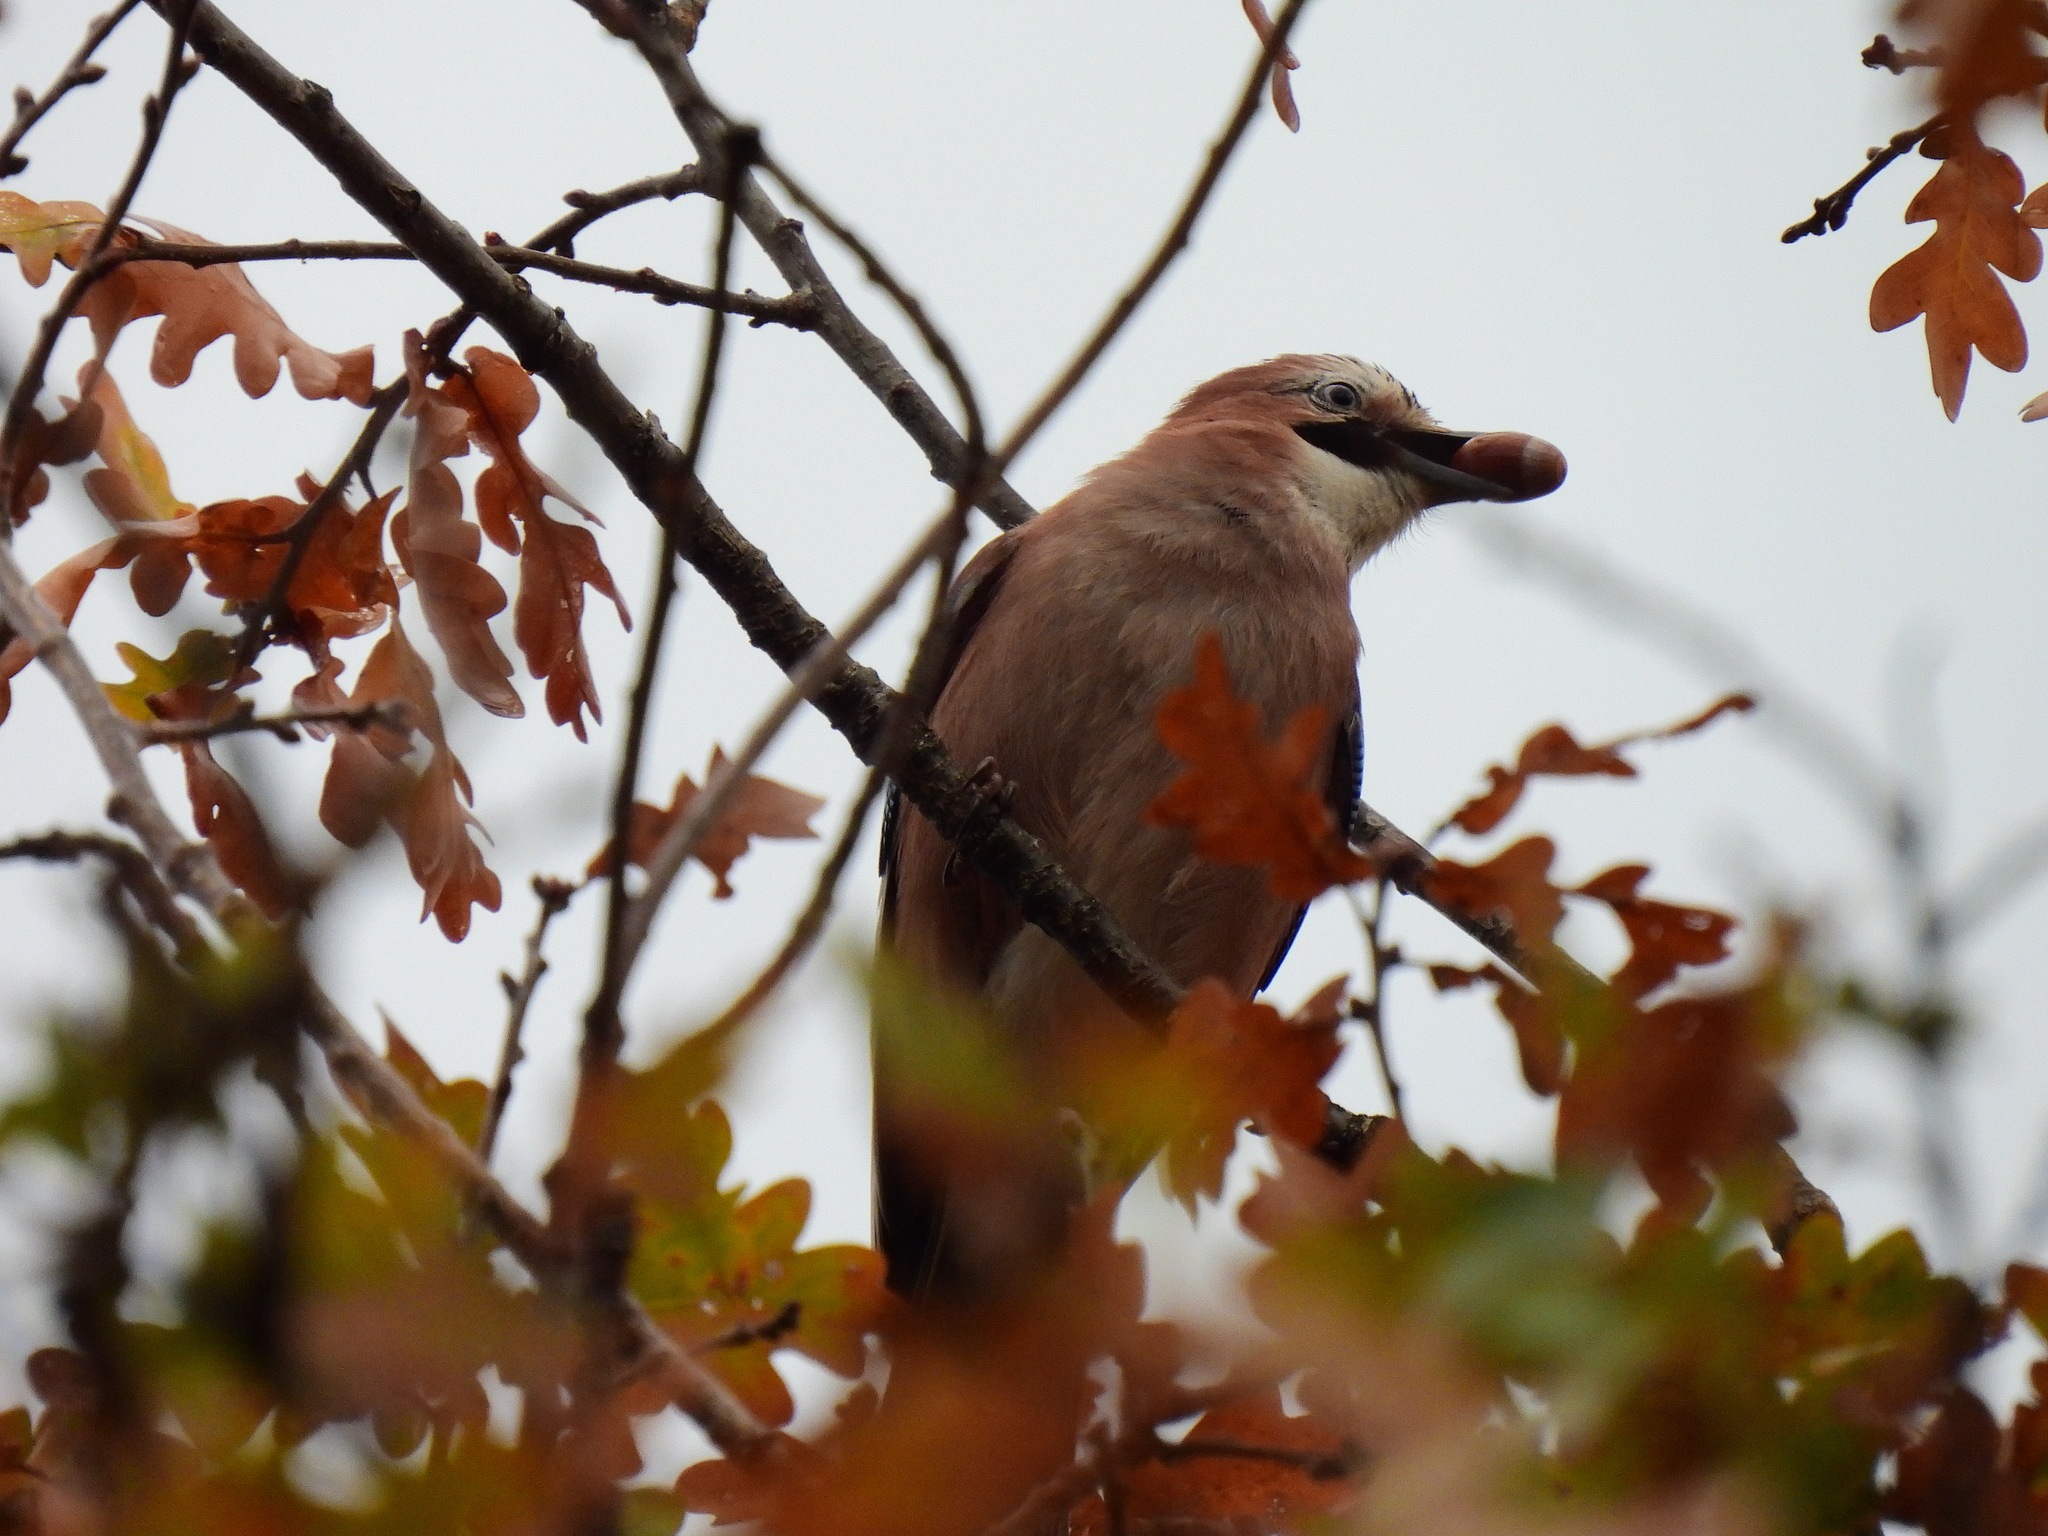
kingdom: Animalia
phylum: Chordata
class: Aves
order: Passeriformes
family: Corvidae
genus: Garrulus
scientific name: Garrulus glandarius
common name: Eurasian jay
